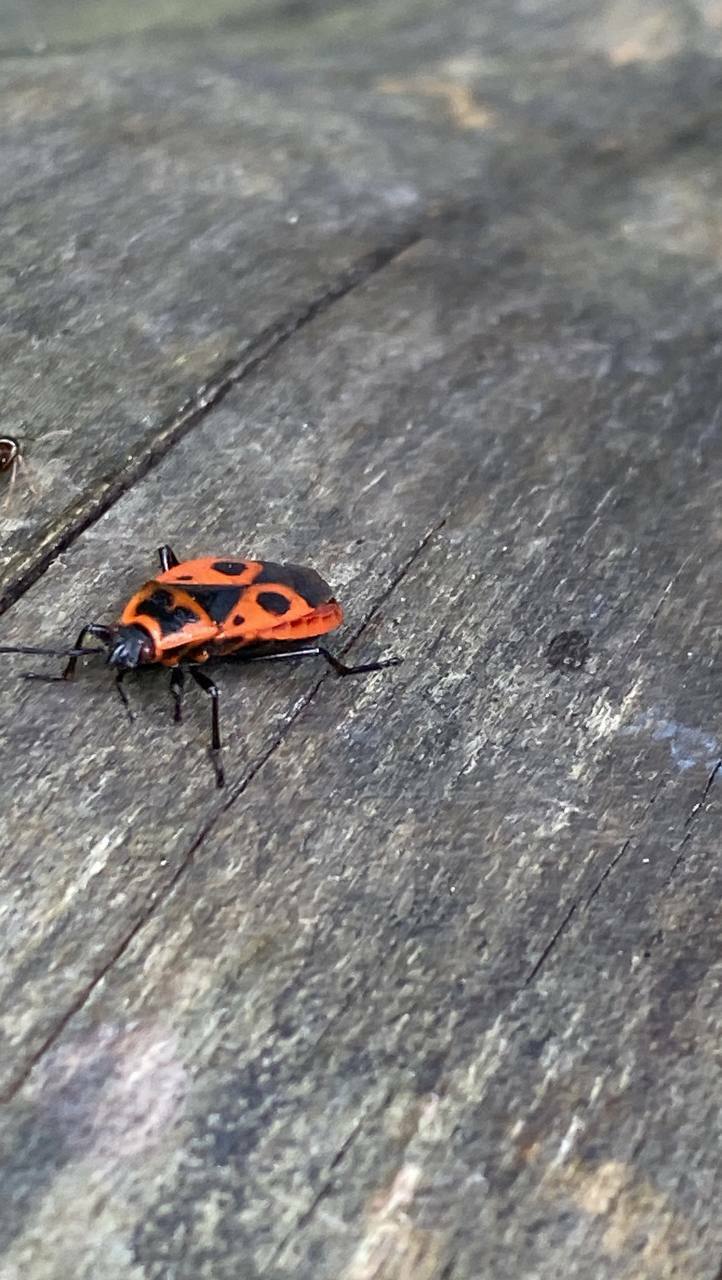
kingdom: Animalia
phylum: Arthropoda
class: Insecta
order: Hemiptera
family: Pyrrhocoridae
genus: Pyrrhocoris
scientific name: Pyrrhocoris apterus
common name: Firebug
